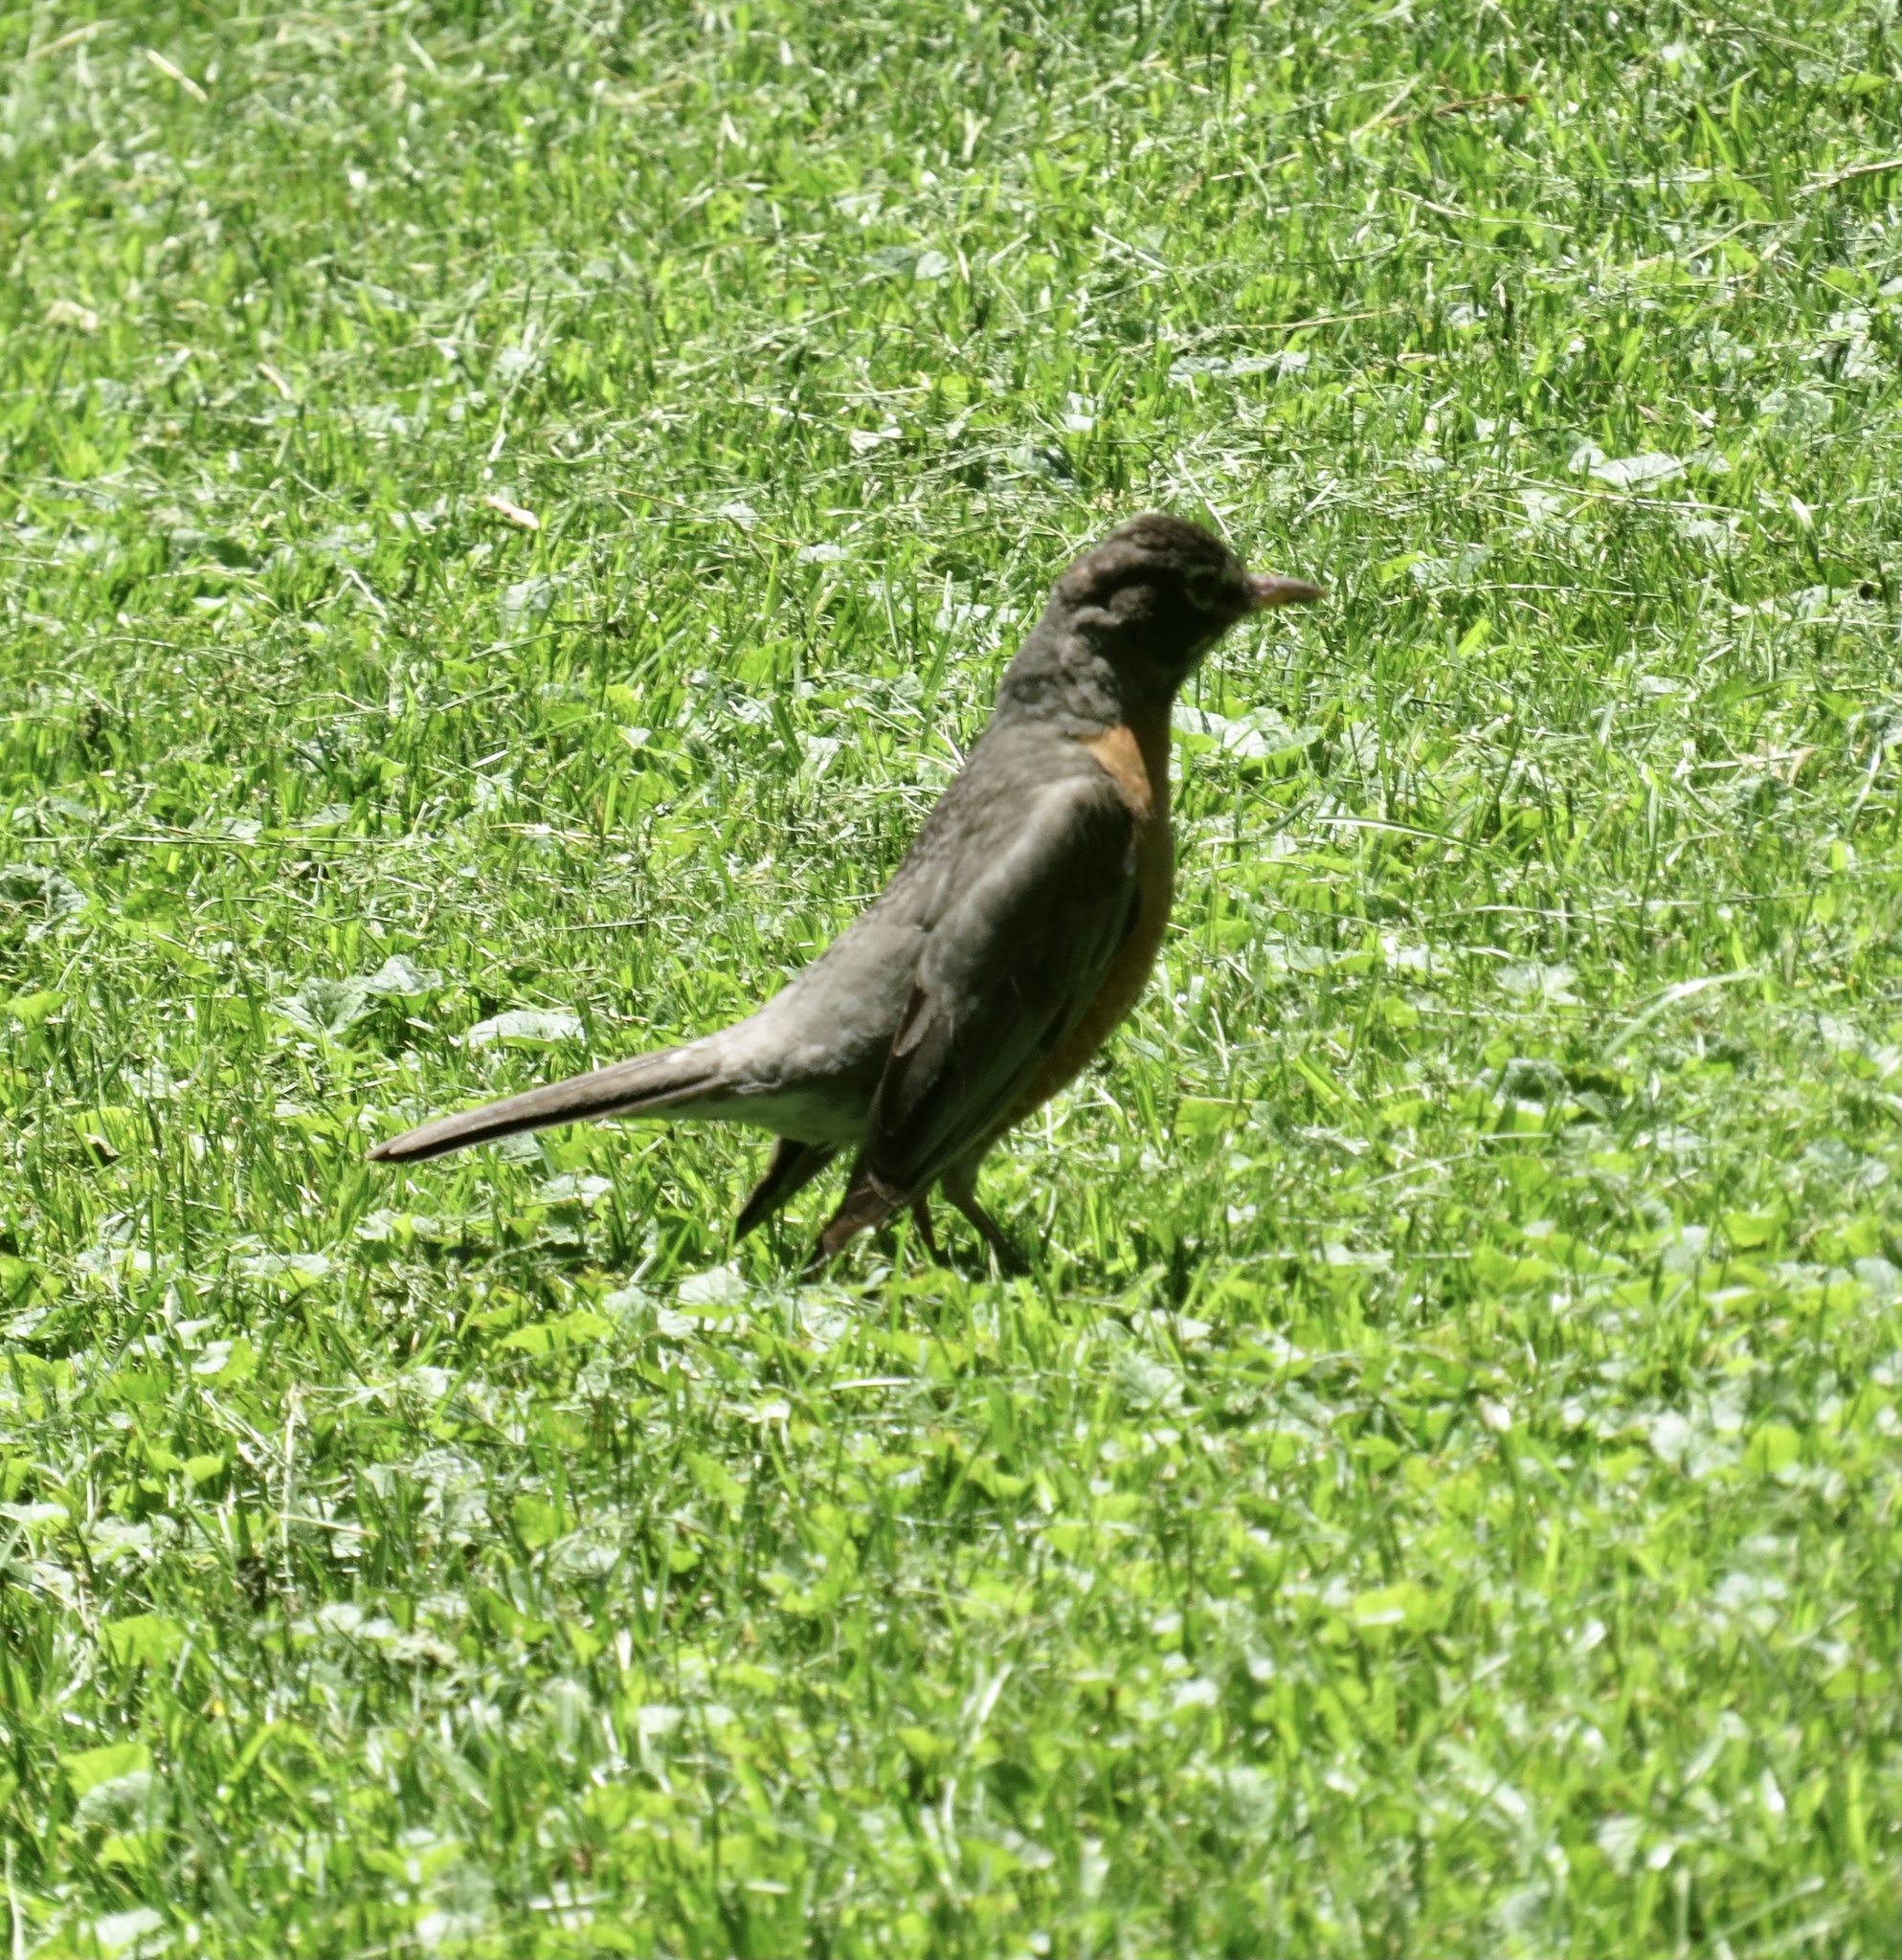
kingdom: Animalia
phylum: Chordata
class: Aves
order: Passeriformes
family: Turdidae
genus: Turdus
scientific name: Turdus migratorius
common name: American robin
